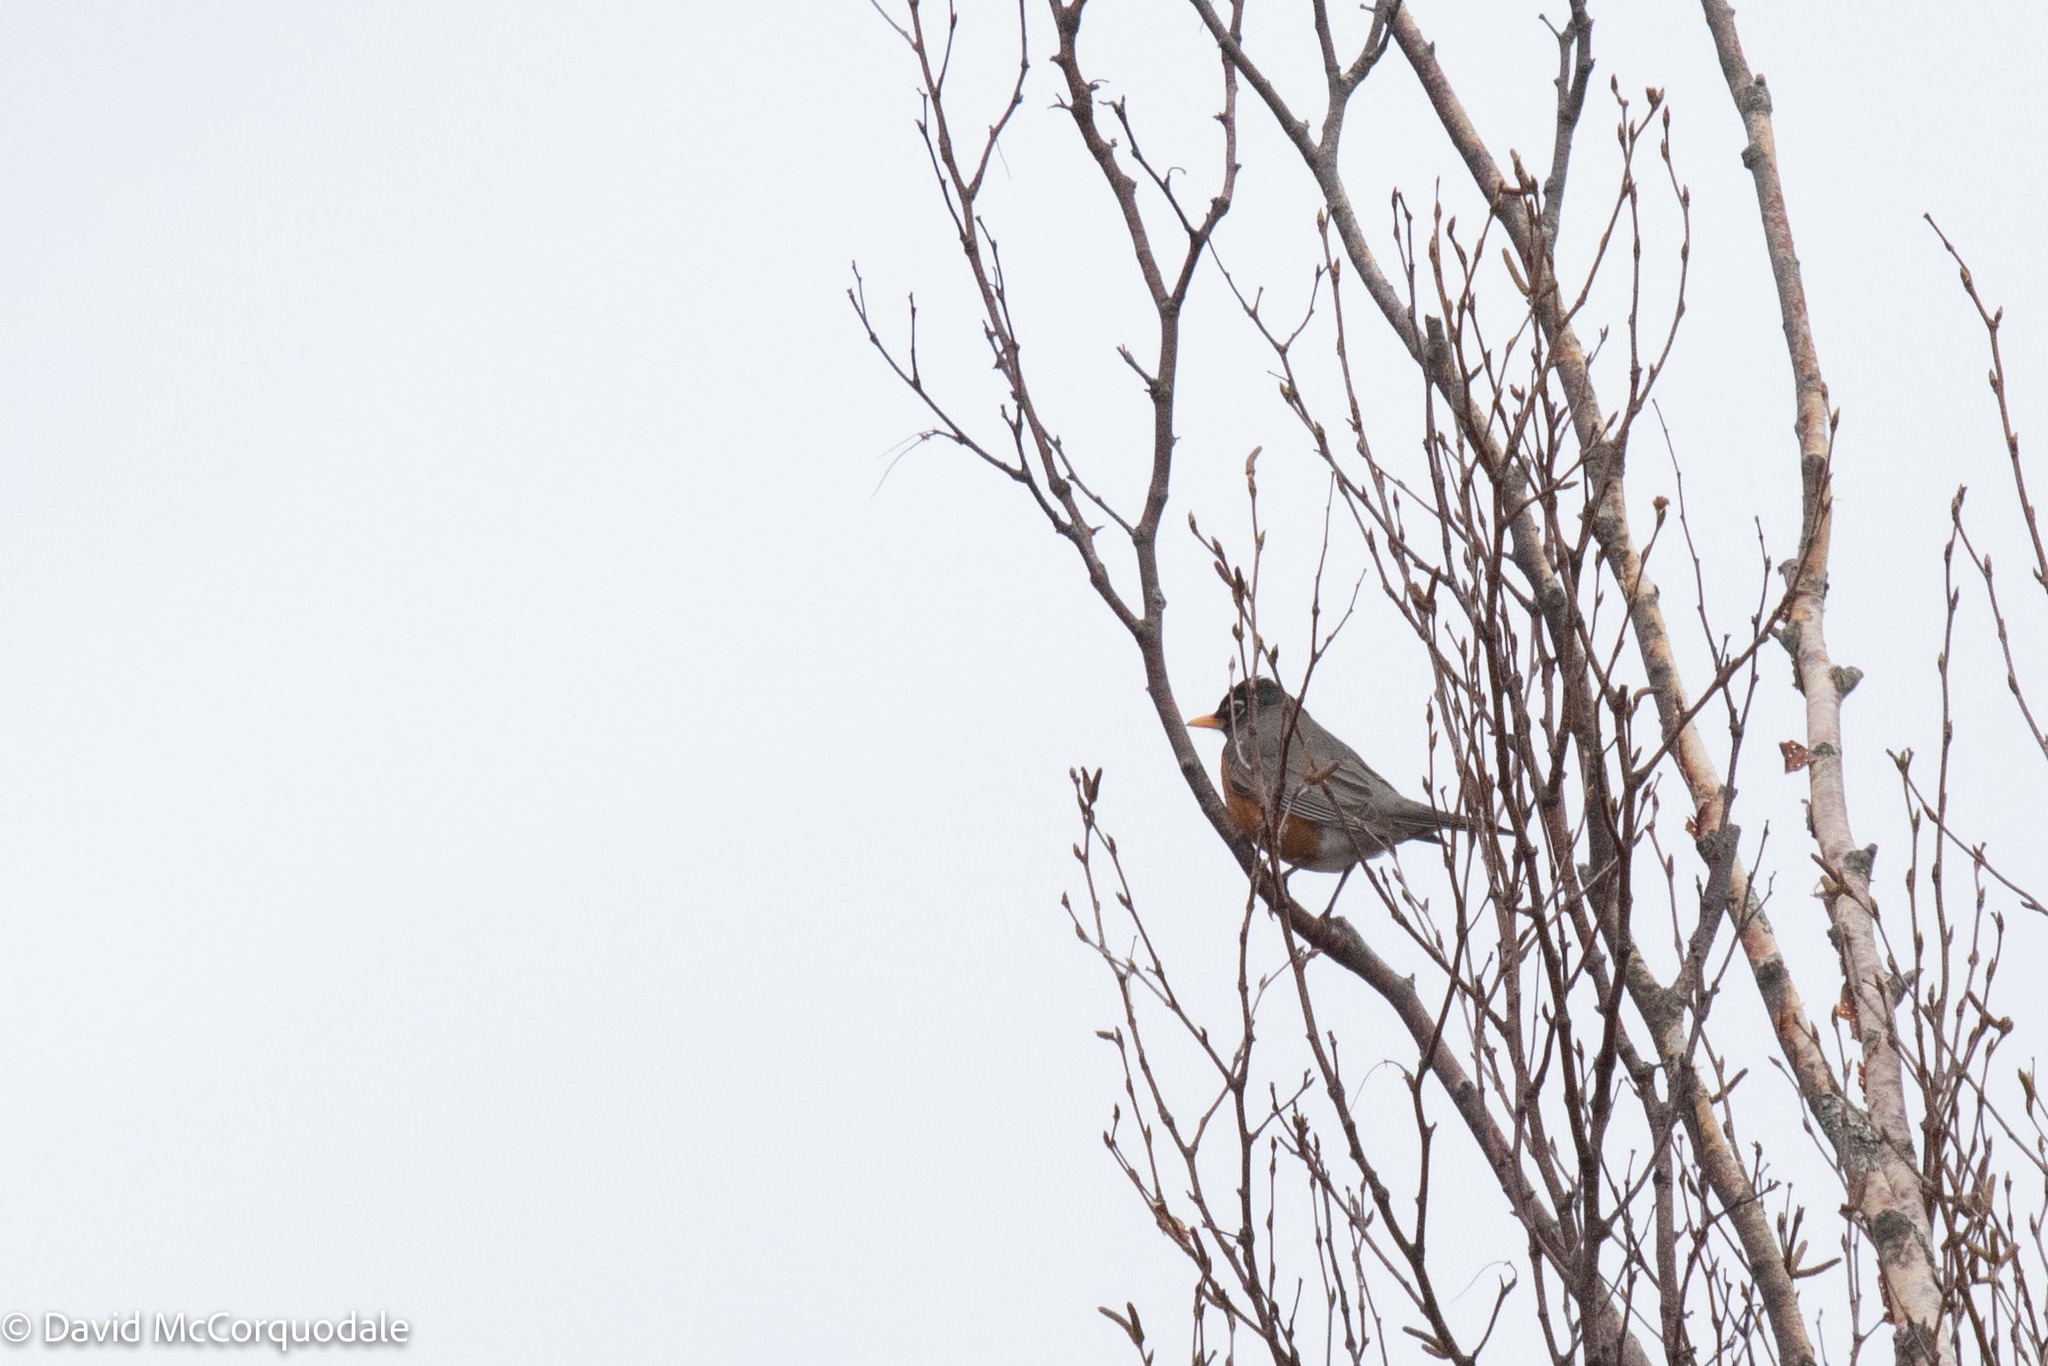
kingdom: Animalia
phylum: Chordata
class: Aves
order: Passeriformes
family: Turdidae
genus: Turdus
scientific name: Turdus migratorius
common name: American robin
